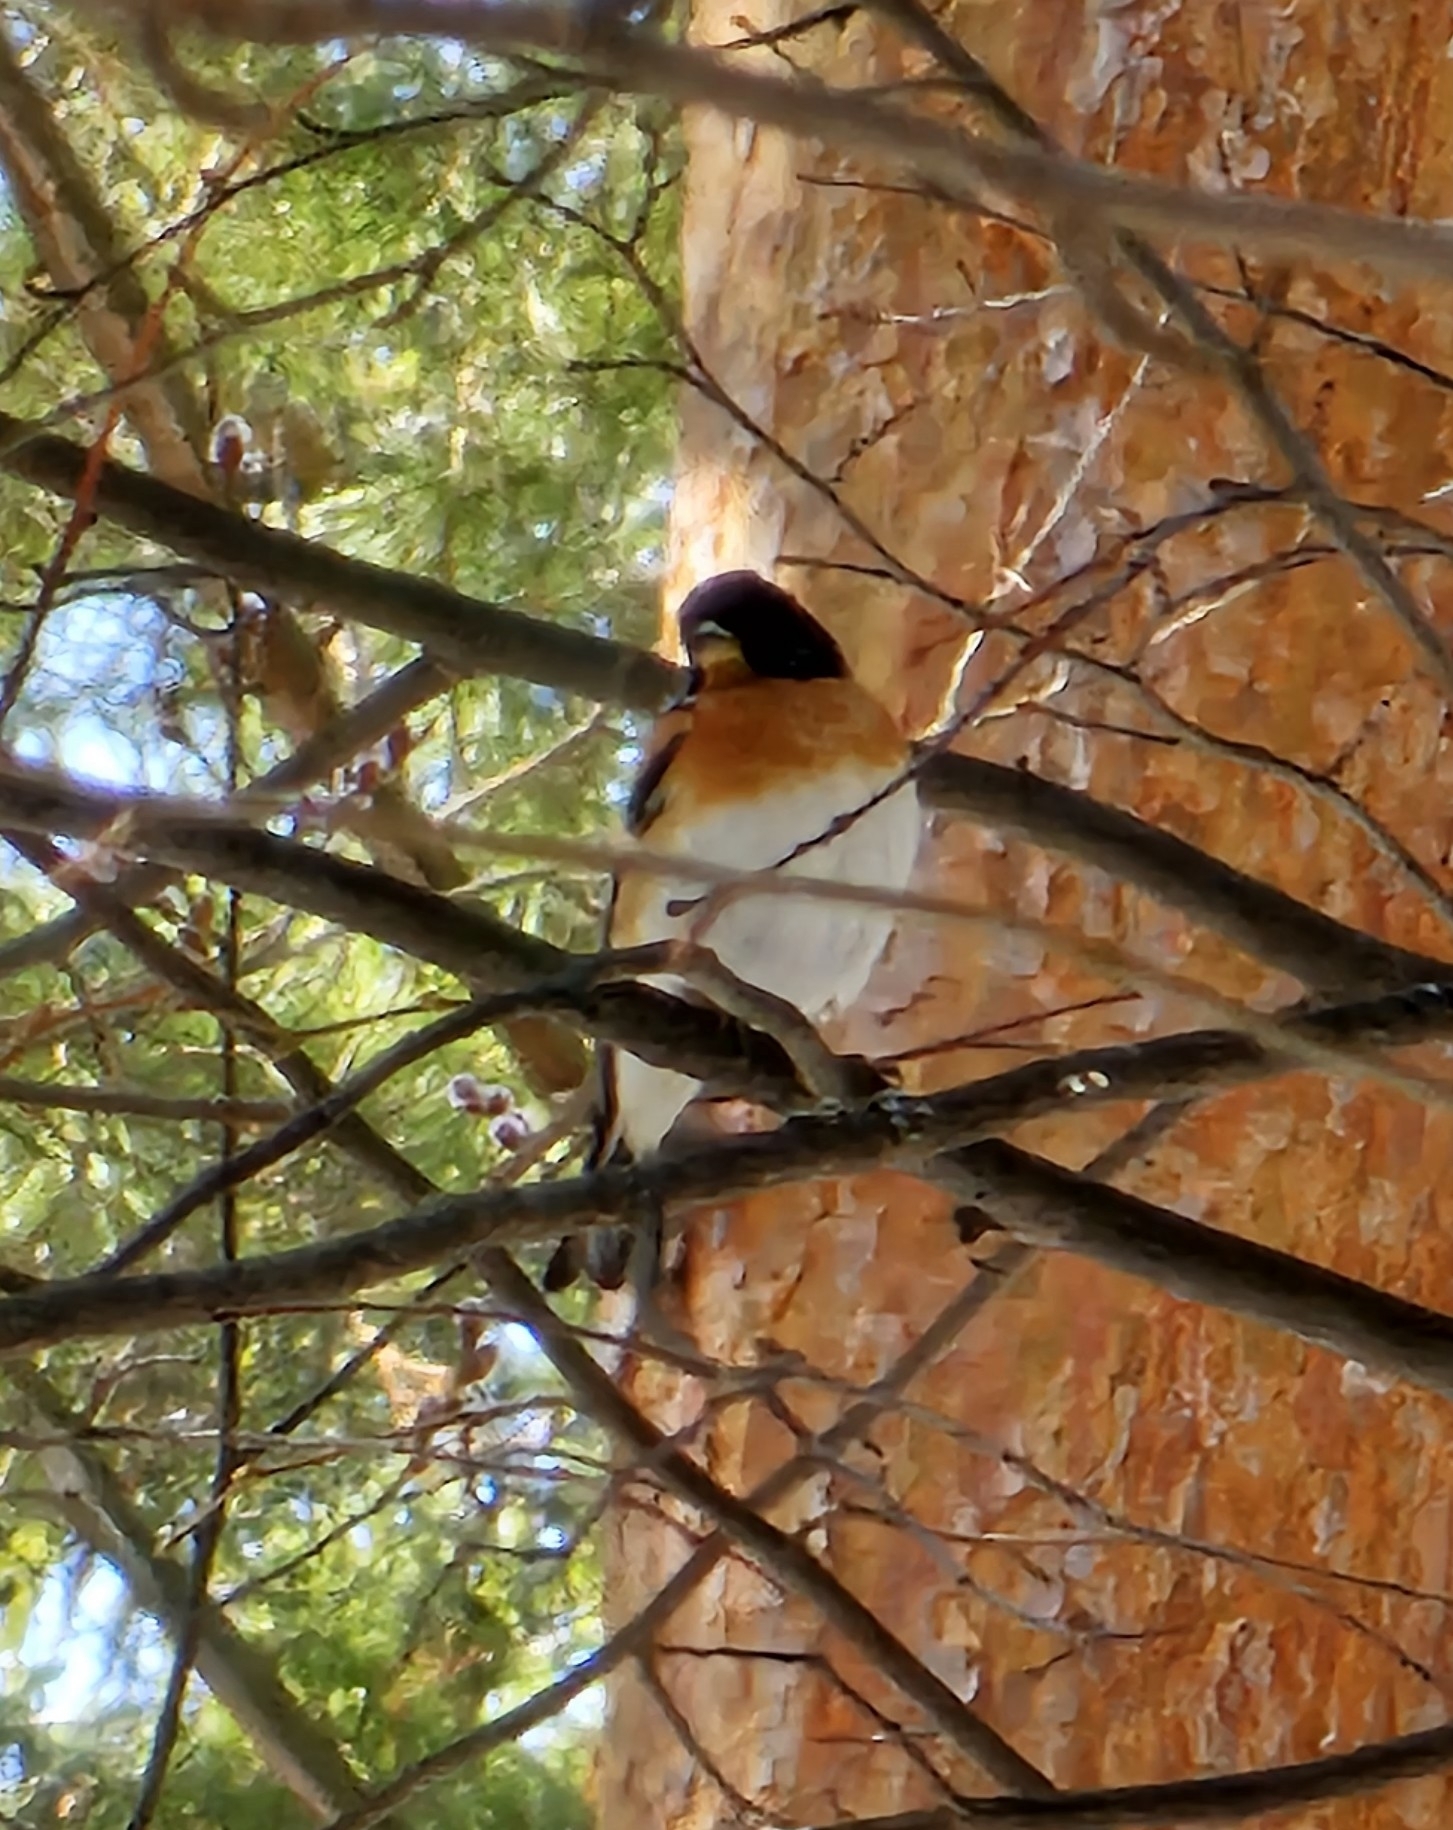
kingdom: Animalia
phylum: Chordata
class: Aves
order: Passeriformes
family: Fringillidae
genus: Fringilla
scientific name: Fringilla montifringilla
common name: Brambling
